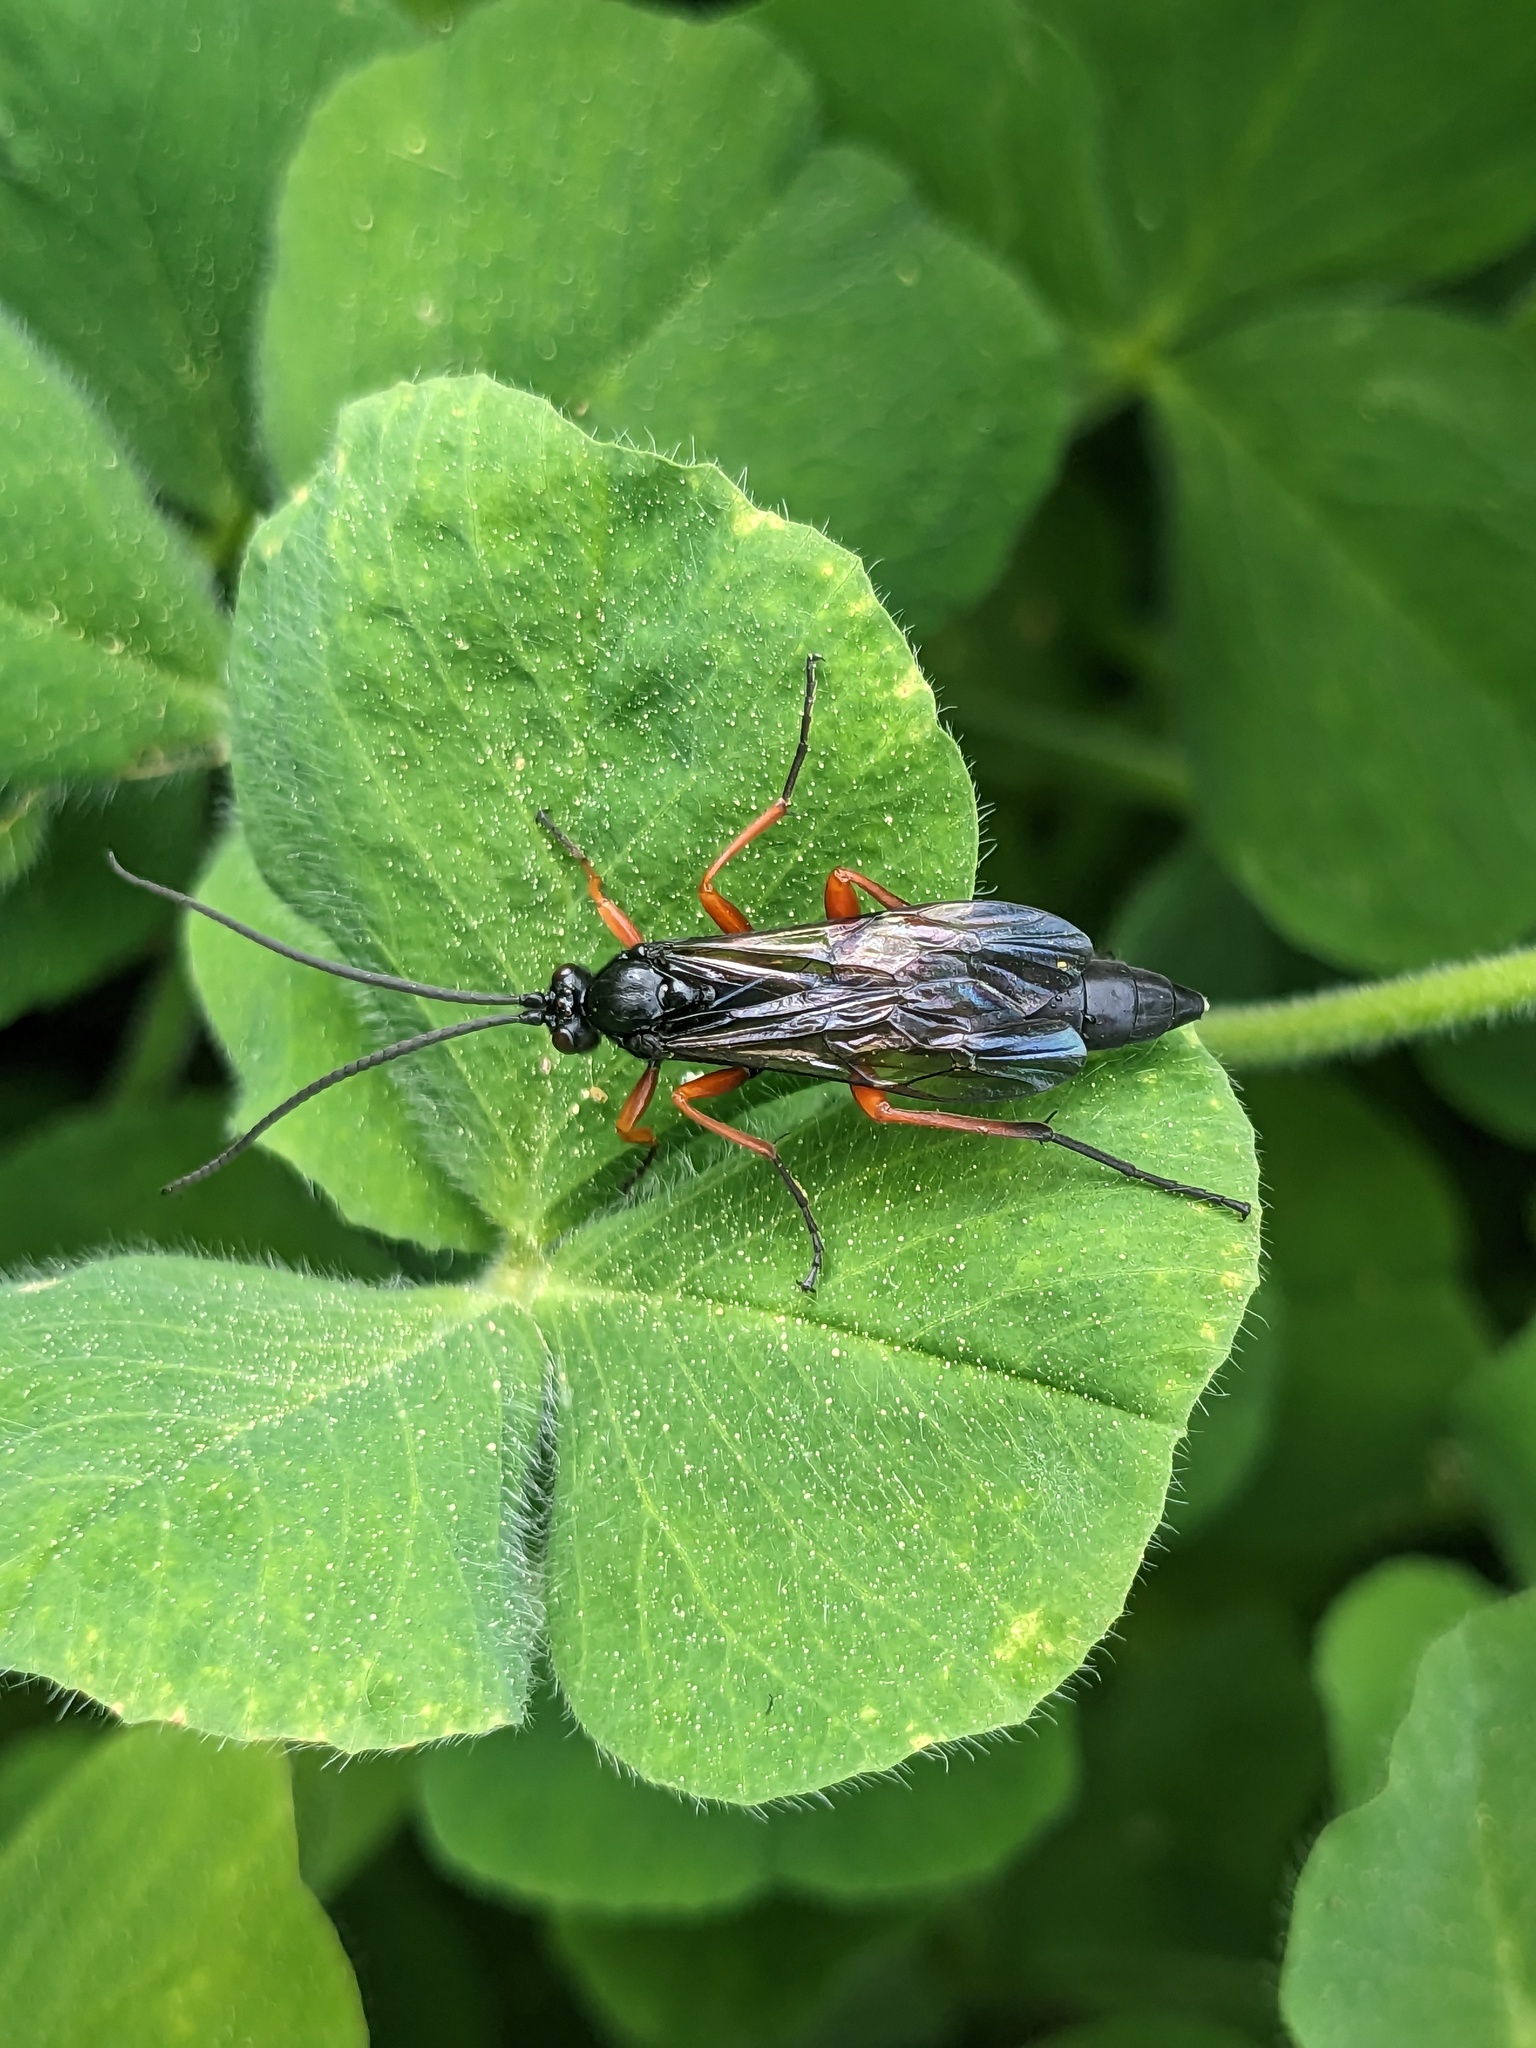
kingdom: Animalia
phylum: Arthropoda
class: Insecta
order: Hymenoptera
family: Ichneumonidae
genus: Pimpla
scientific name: Pimpla rufipes
